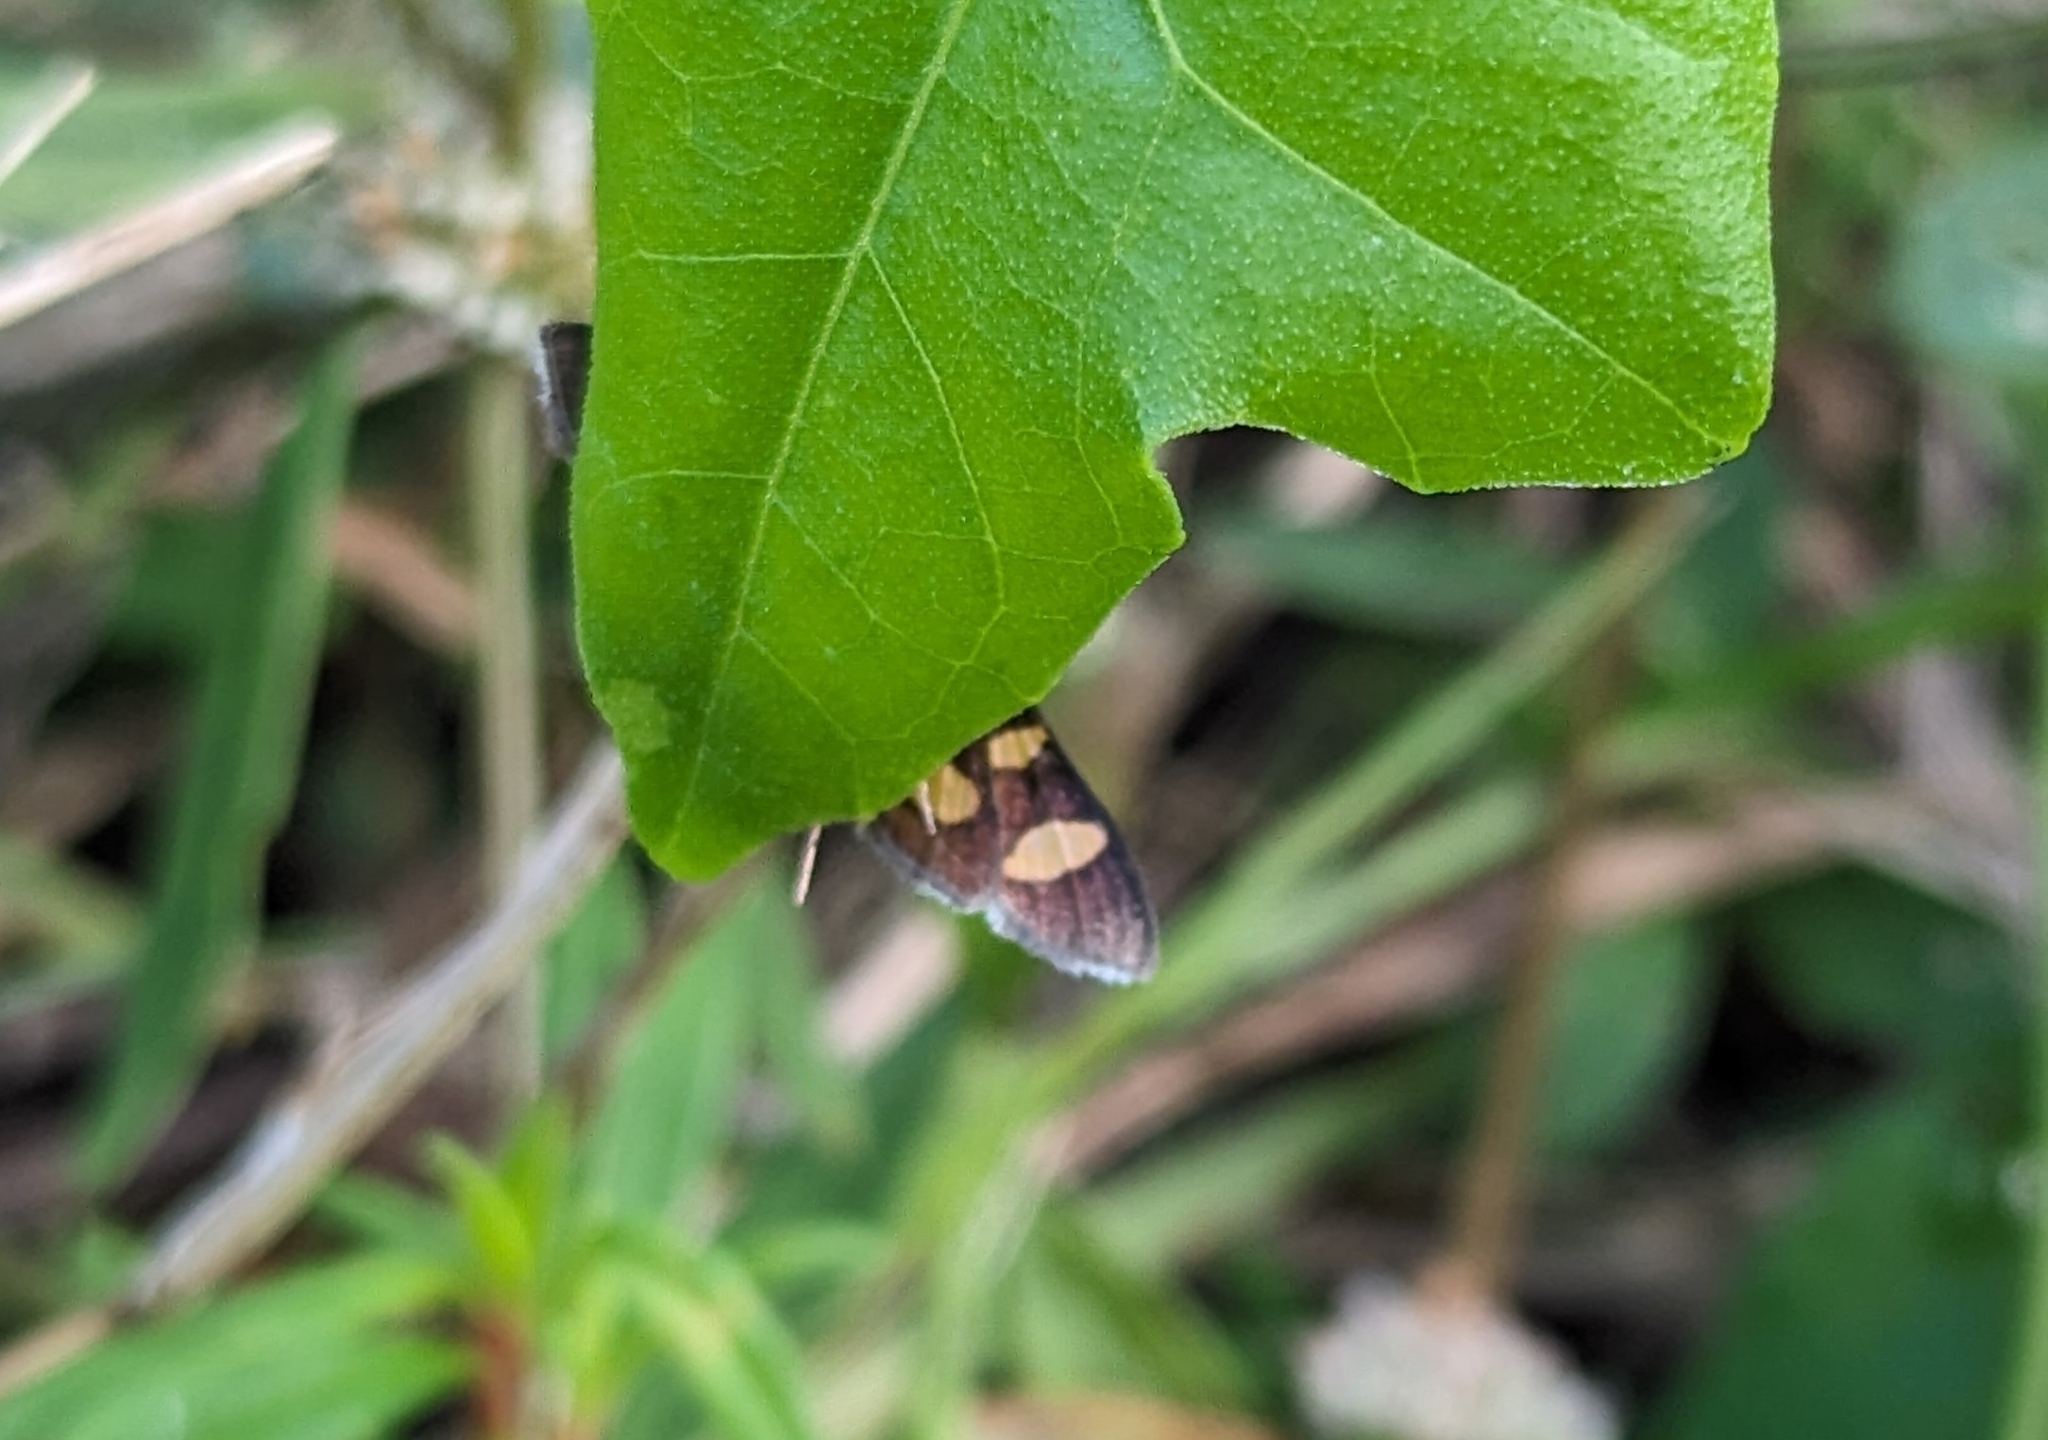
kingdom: Animalia
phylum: Arthropoda
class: Insecta
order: Lepidoptera
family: Crambidae
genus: Syngamia
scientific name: Syngamia florella
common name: Orange-spotted flower moth
